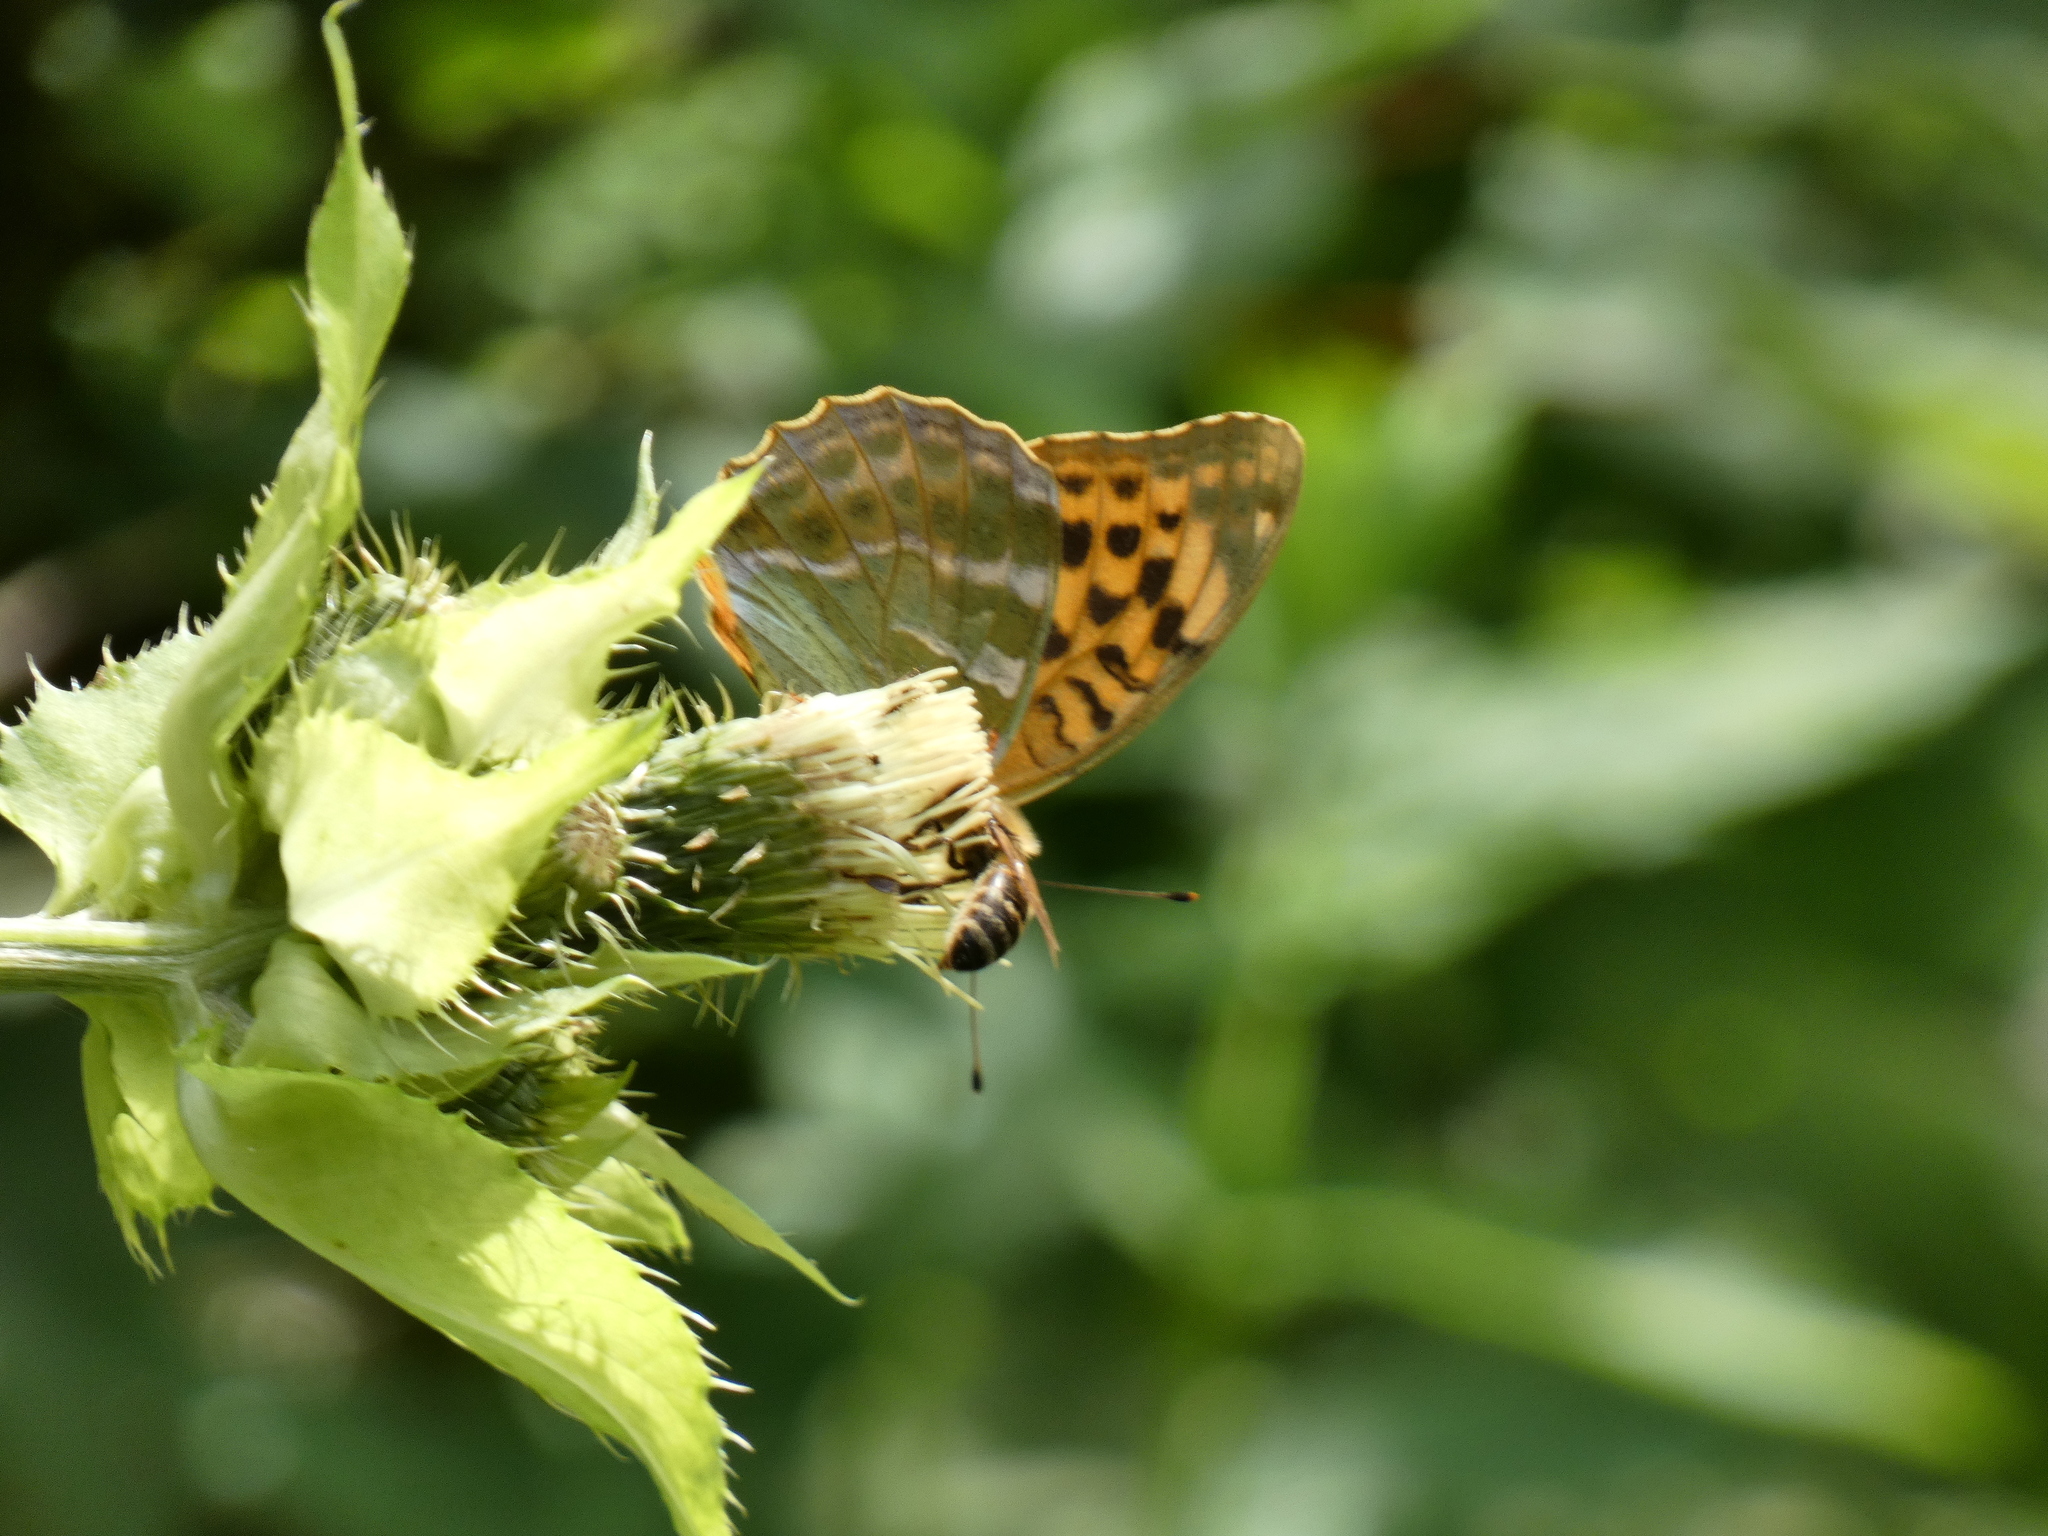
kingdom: Animalia
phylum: Arthropoda
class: Insecta
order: Lepidoptera
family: Nymphalidae
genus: Argynnis
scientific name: Argynnis paphia
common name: Silver-washed fritillary
